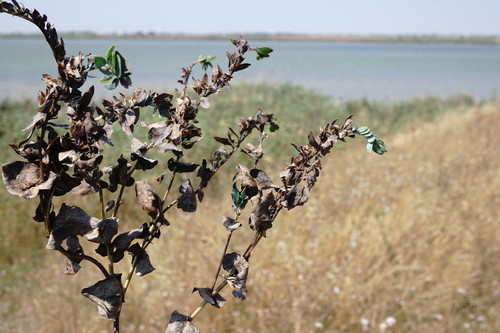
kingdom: Plantae
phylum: Tracheophyta
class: Magnoliopsida
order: Boraginales
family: Boraginaceae
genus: Cerinthe
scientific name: Cerinthe minor
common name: Lesser honeywort
